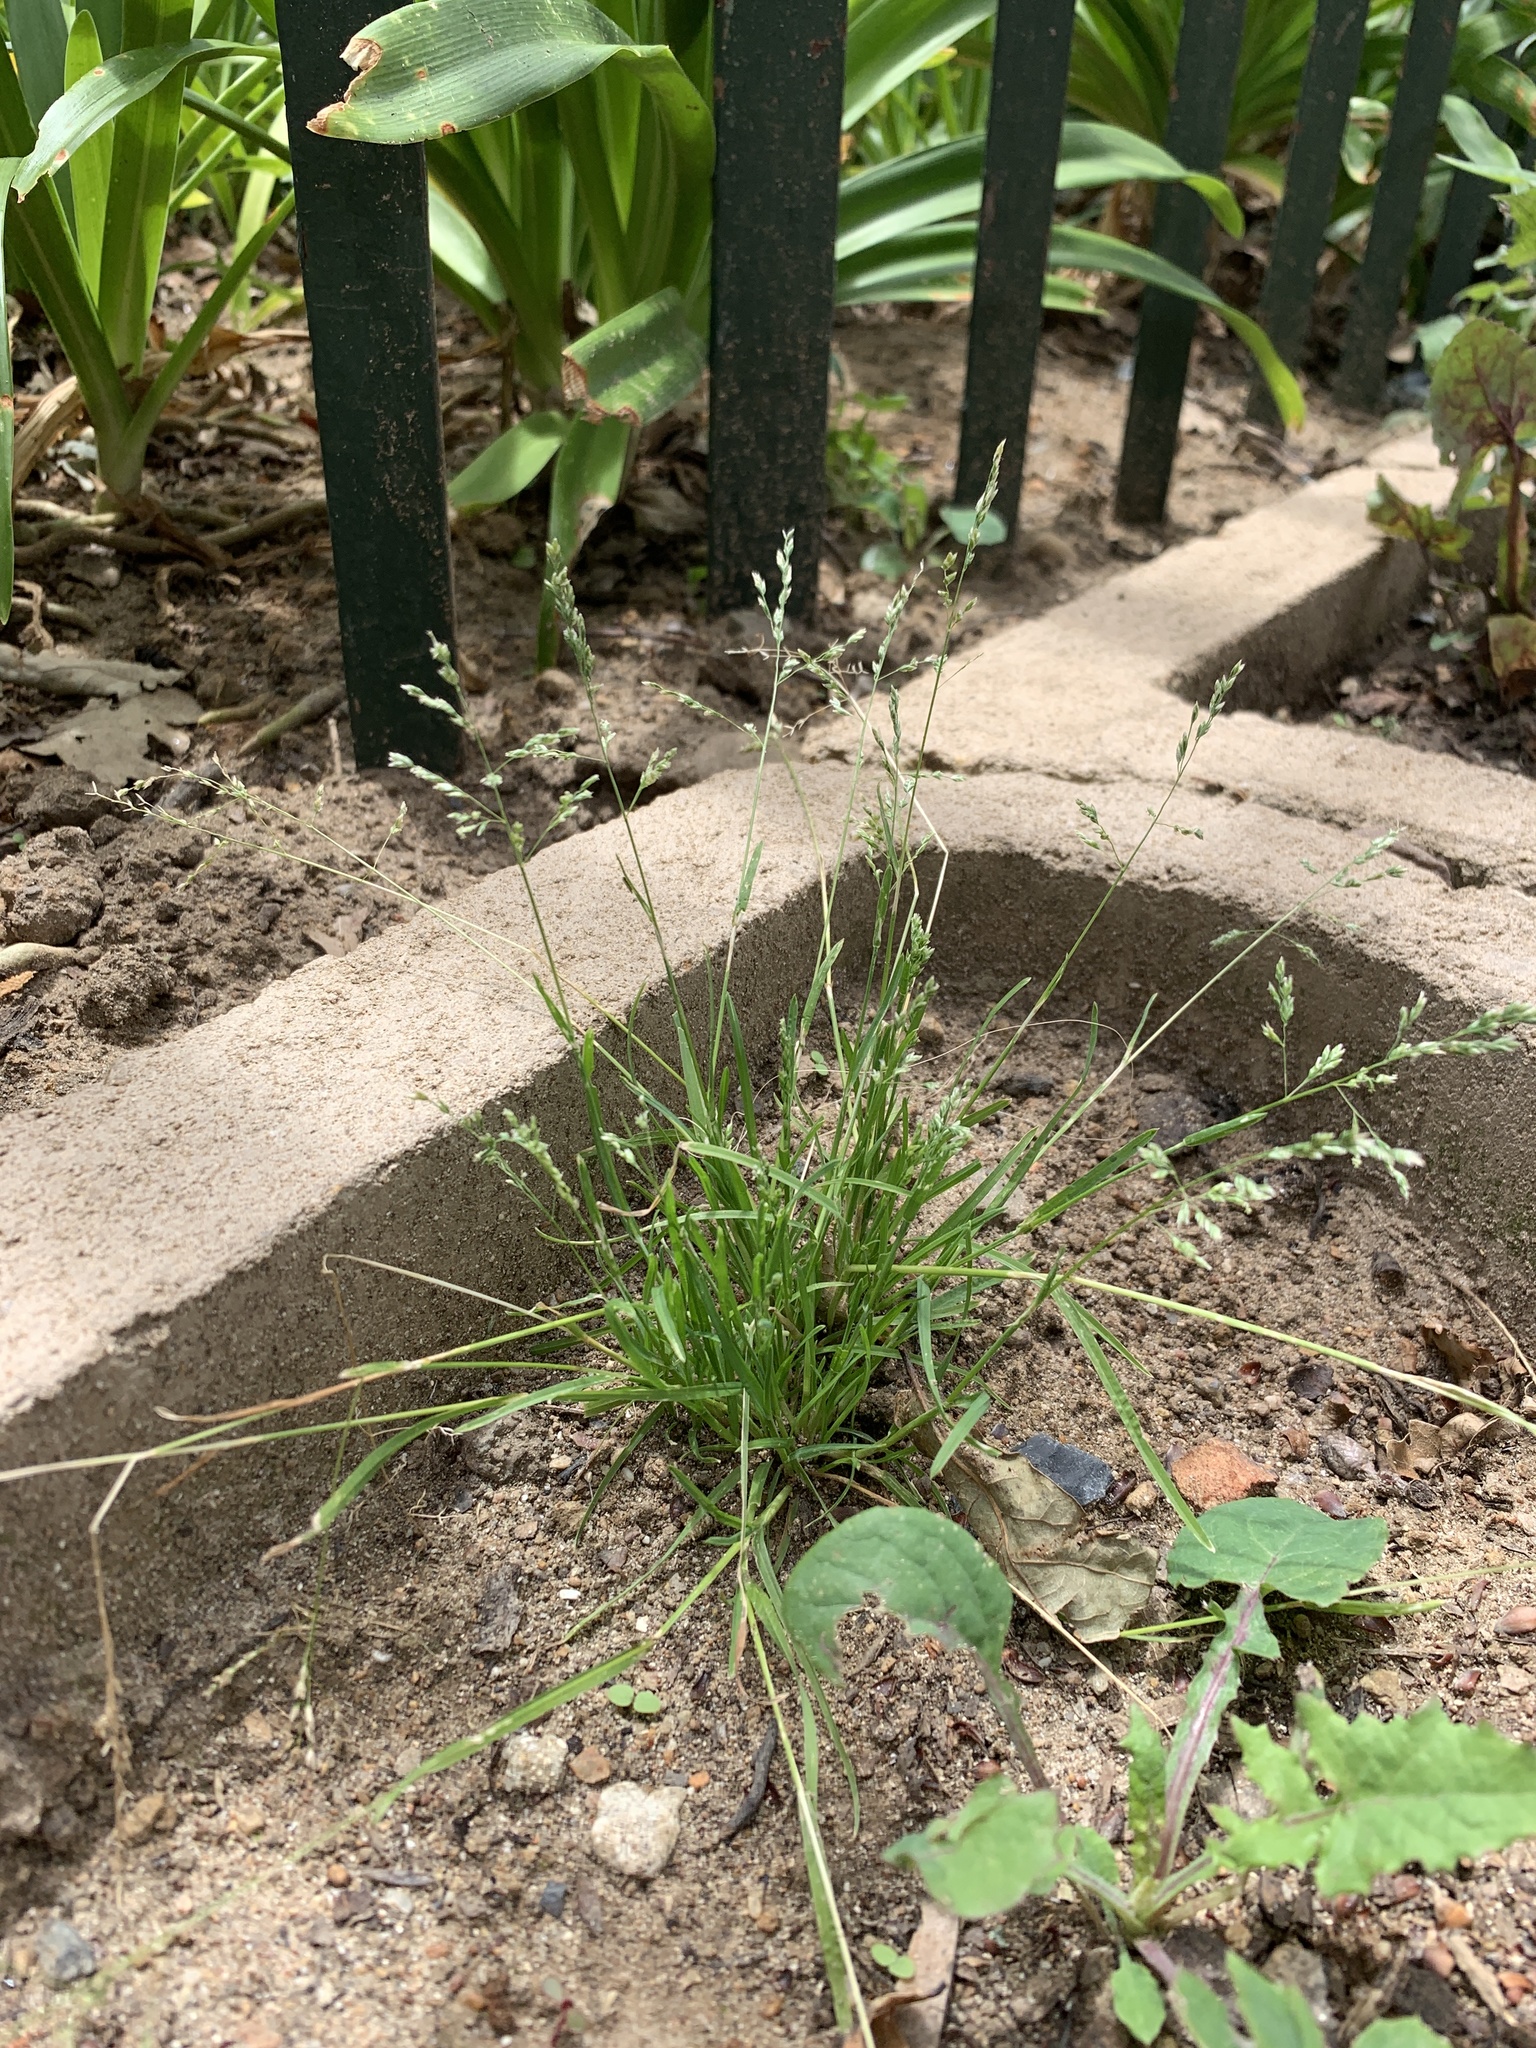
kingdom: Plantae
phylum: Tracheophyta
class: Liliopsida
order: Poales
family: Poaceae
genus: Poa
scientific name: Poa annua
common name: Annual bluegrass
